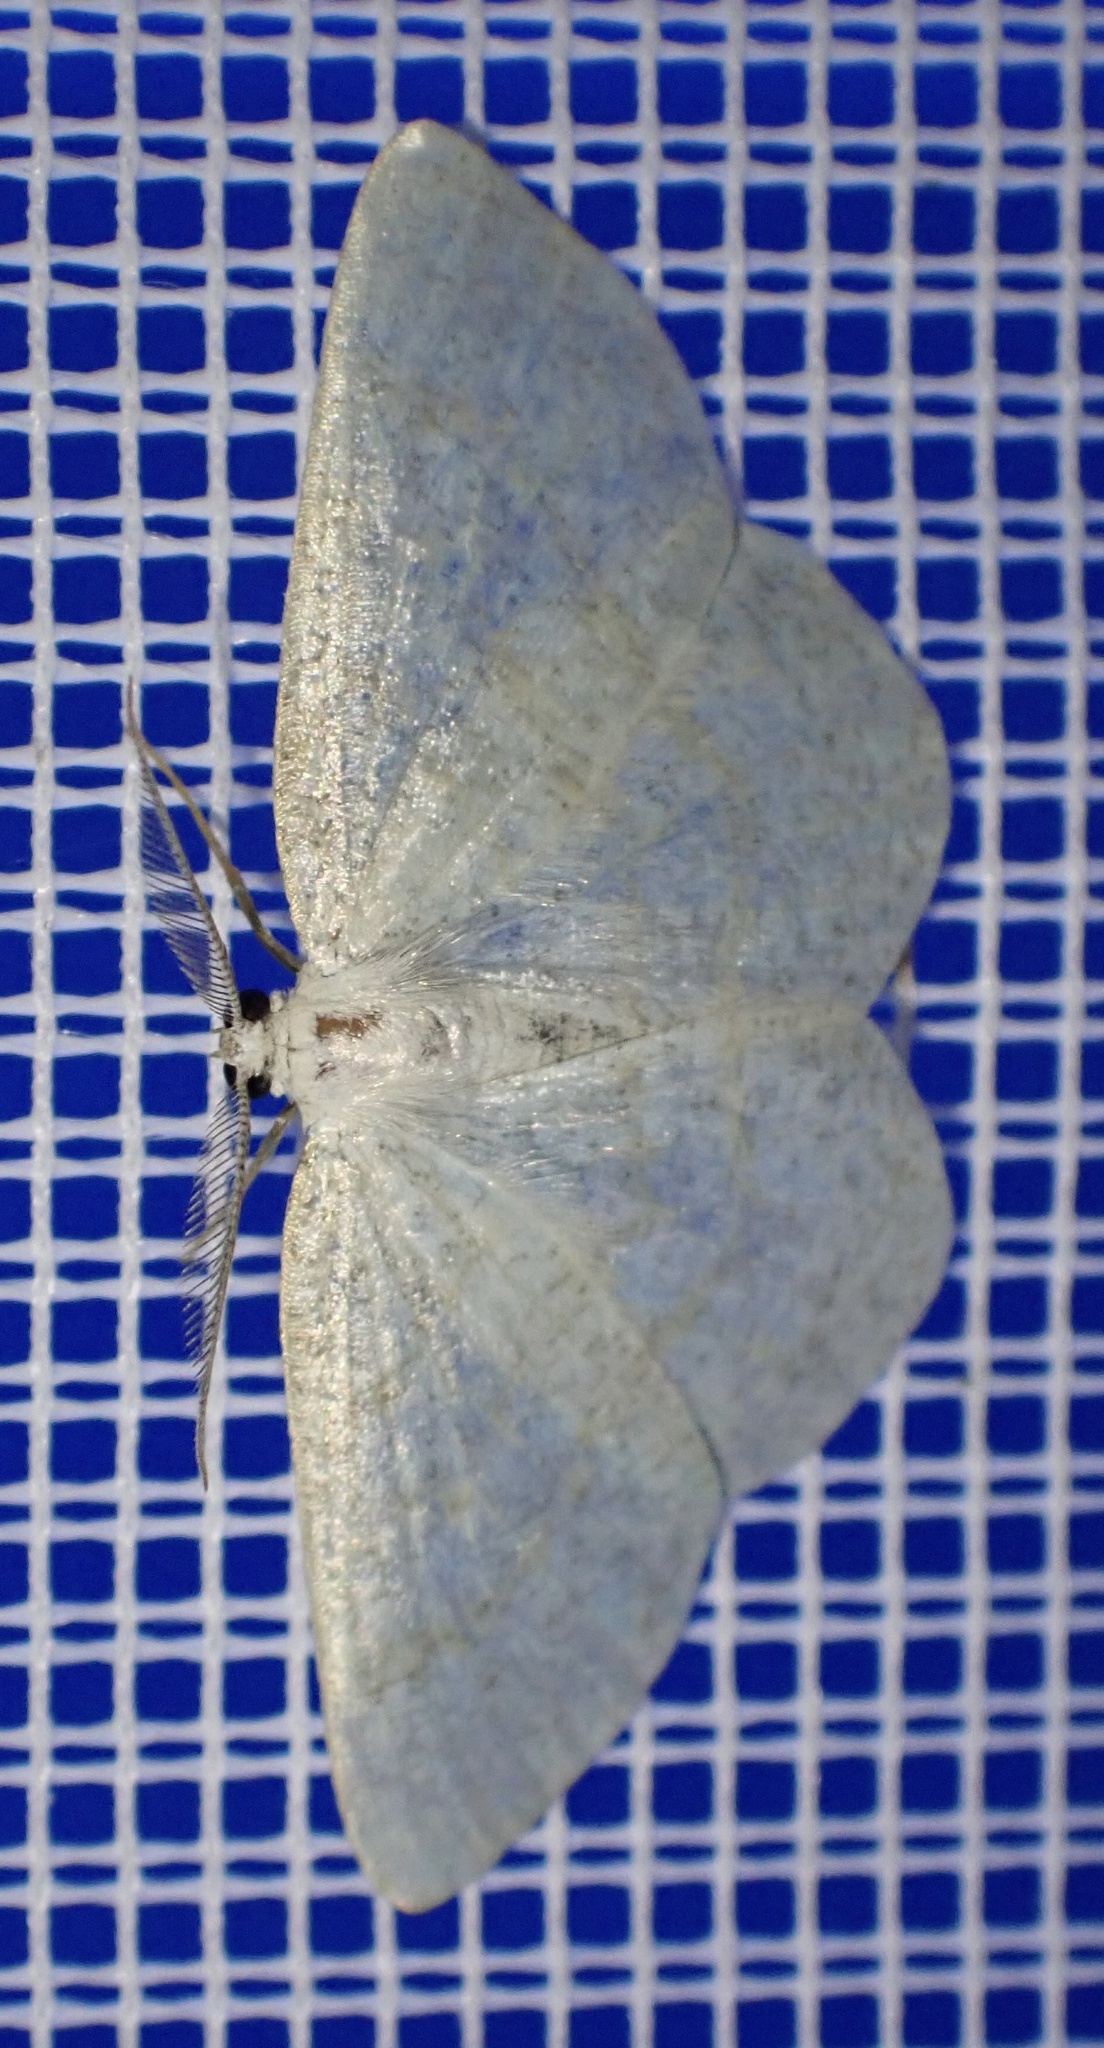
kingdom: Animalia
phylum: Arthropoda
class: Insecta
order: Lepidoptera
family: Geometridae
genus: Cabera
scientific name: Cabera exanthemata
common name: Common wave
